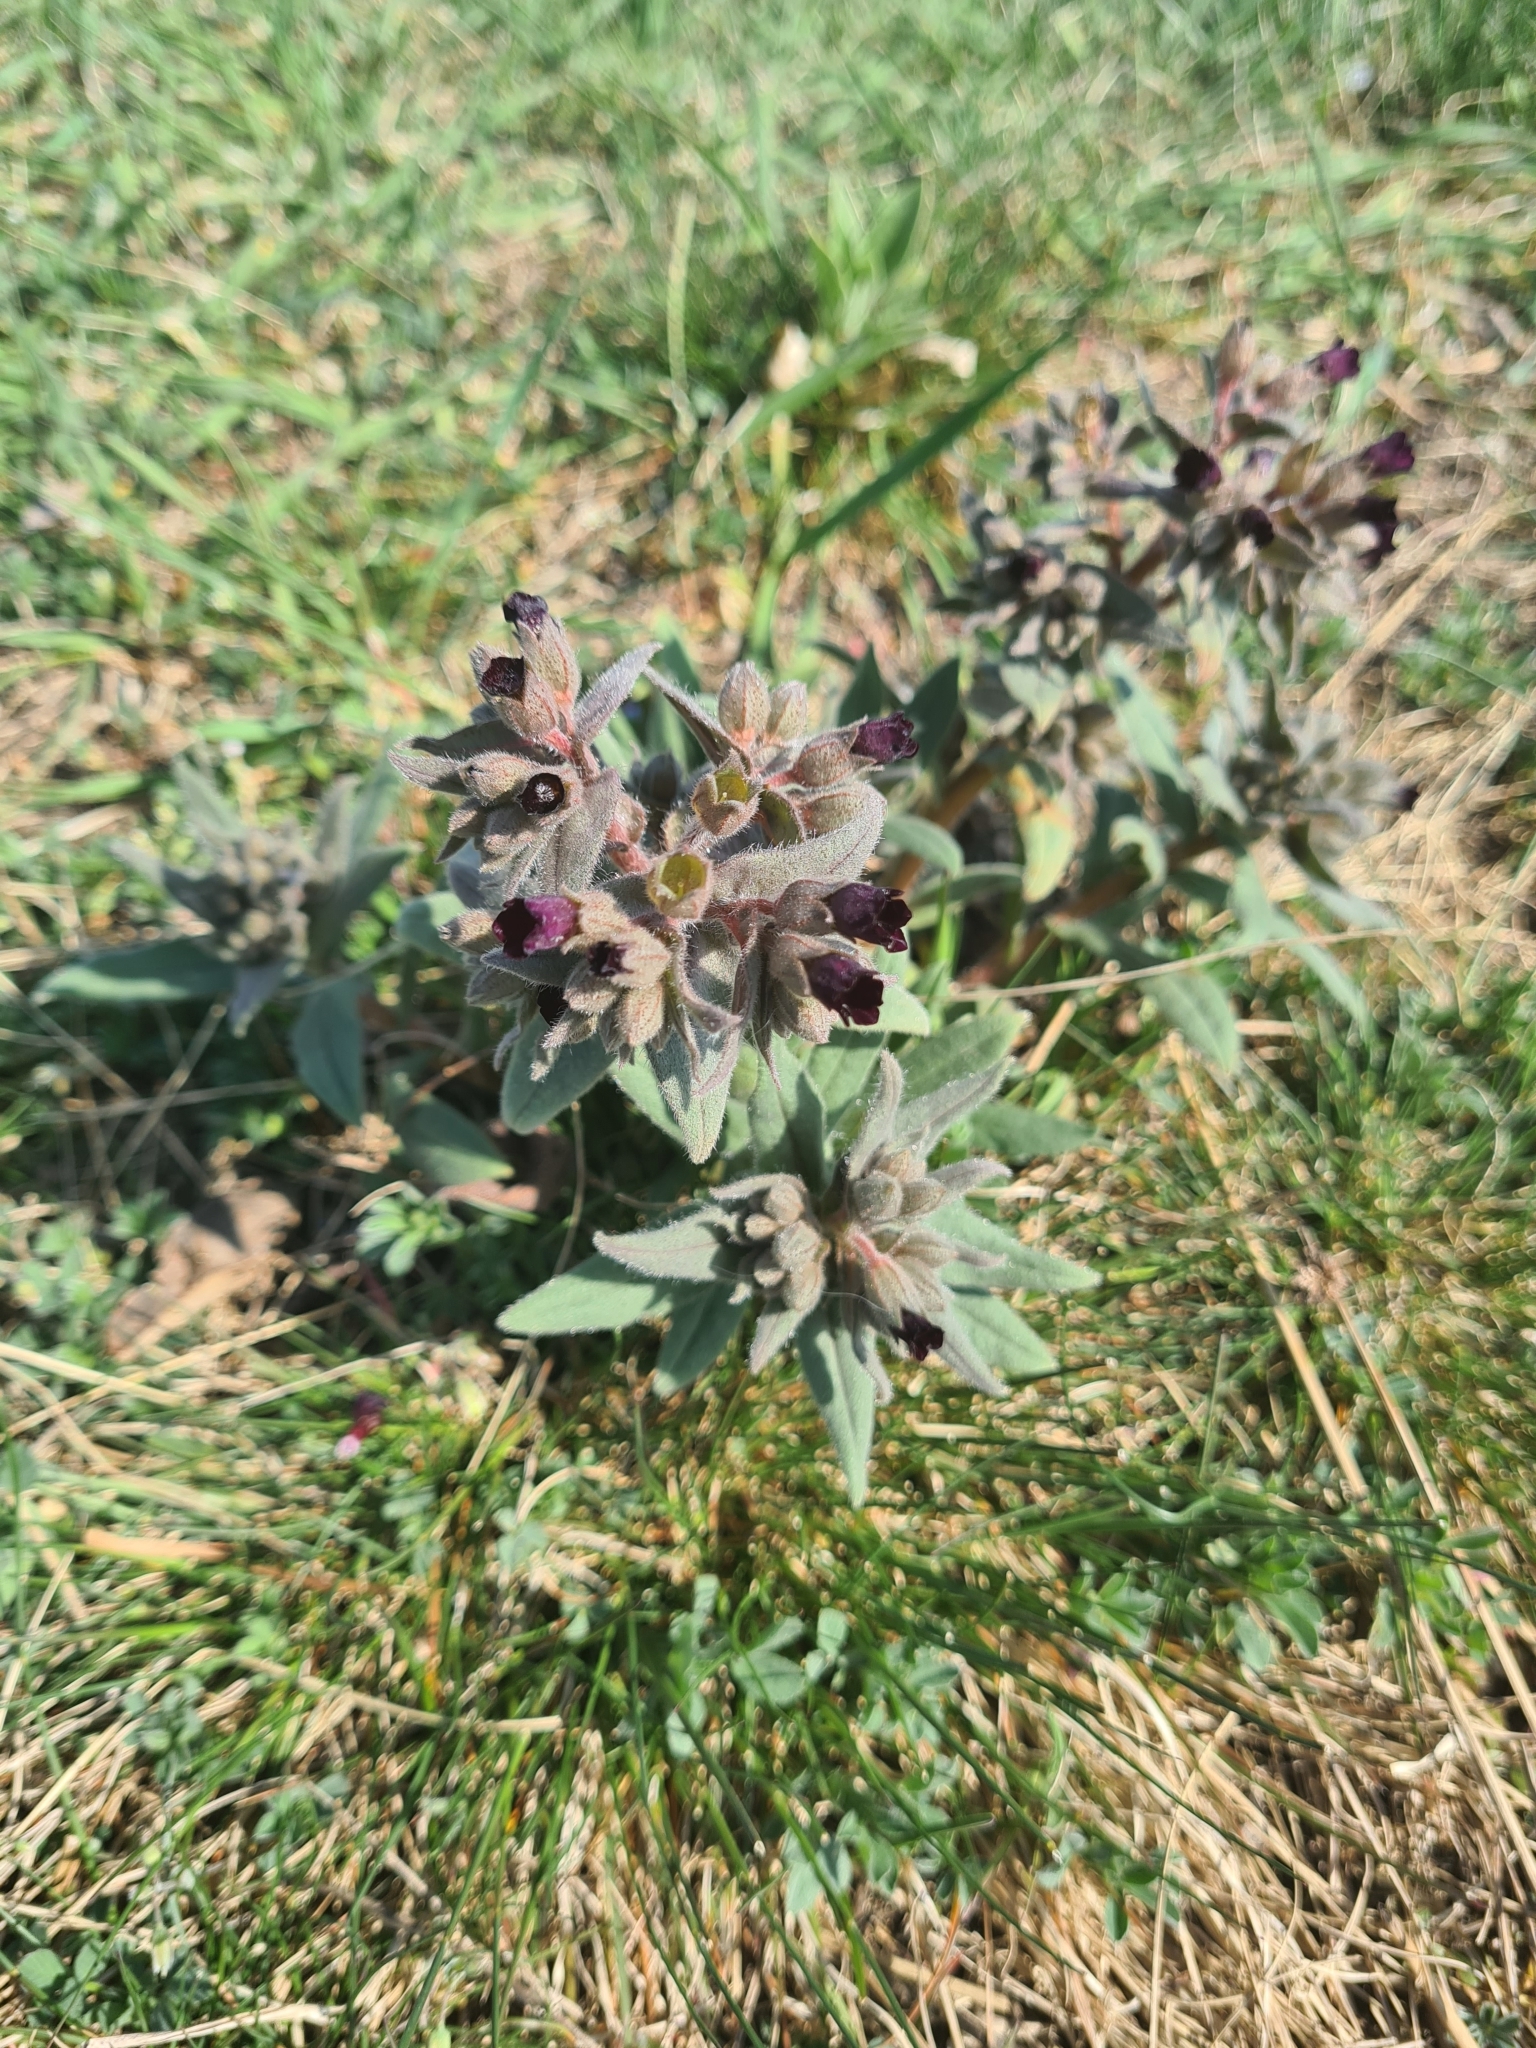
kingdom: Plantae
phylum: Tracheophyta
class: Magnoliopsida
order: Boraginales
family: Boraginaceae
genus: Nonea
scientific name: Nonea pulla
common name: Brown nonea
